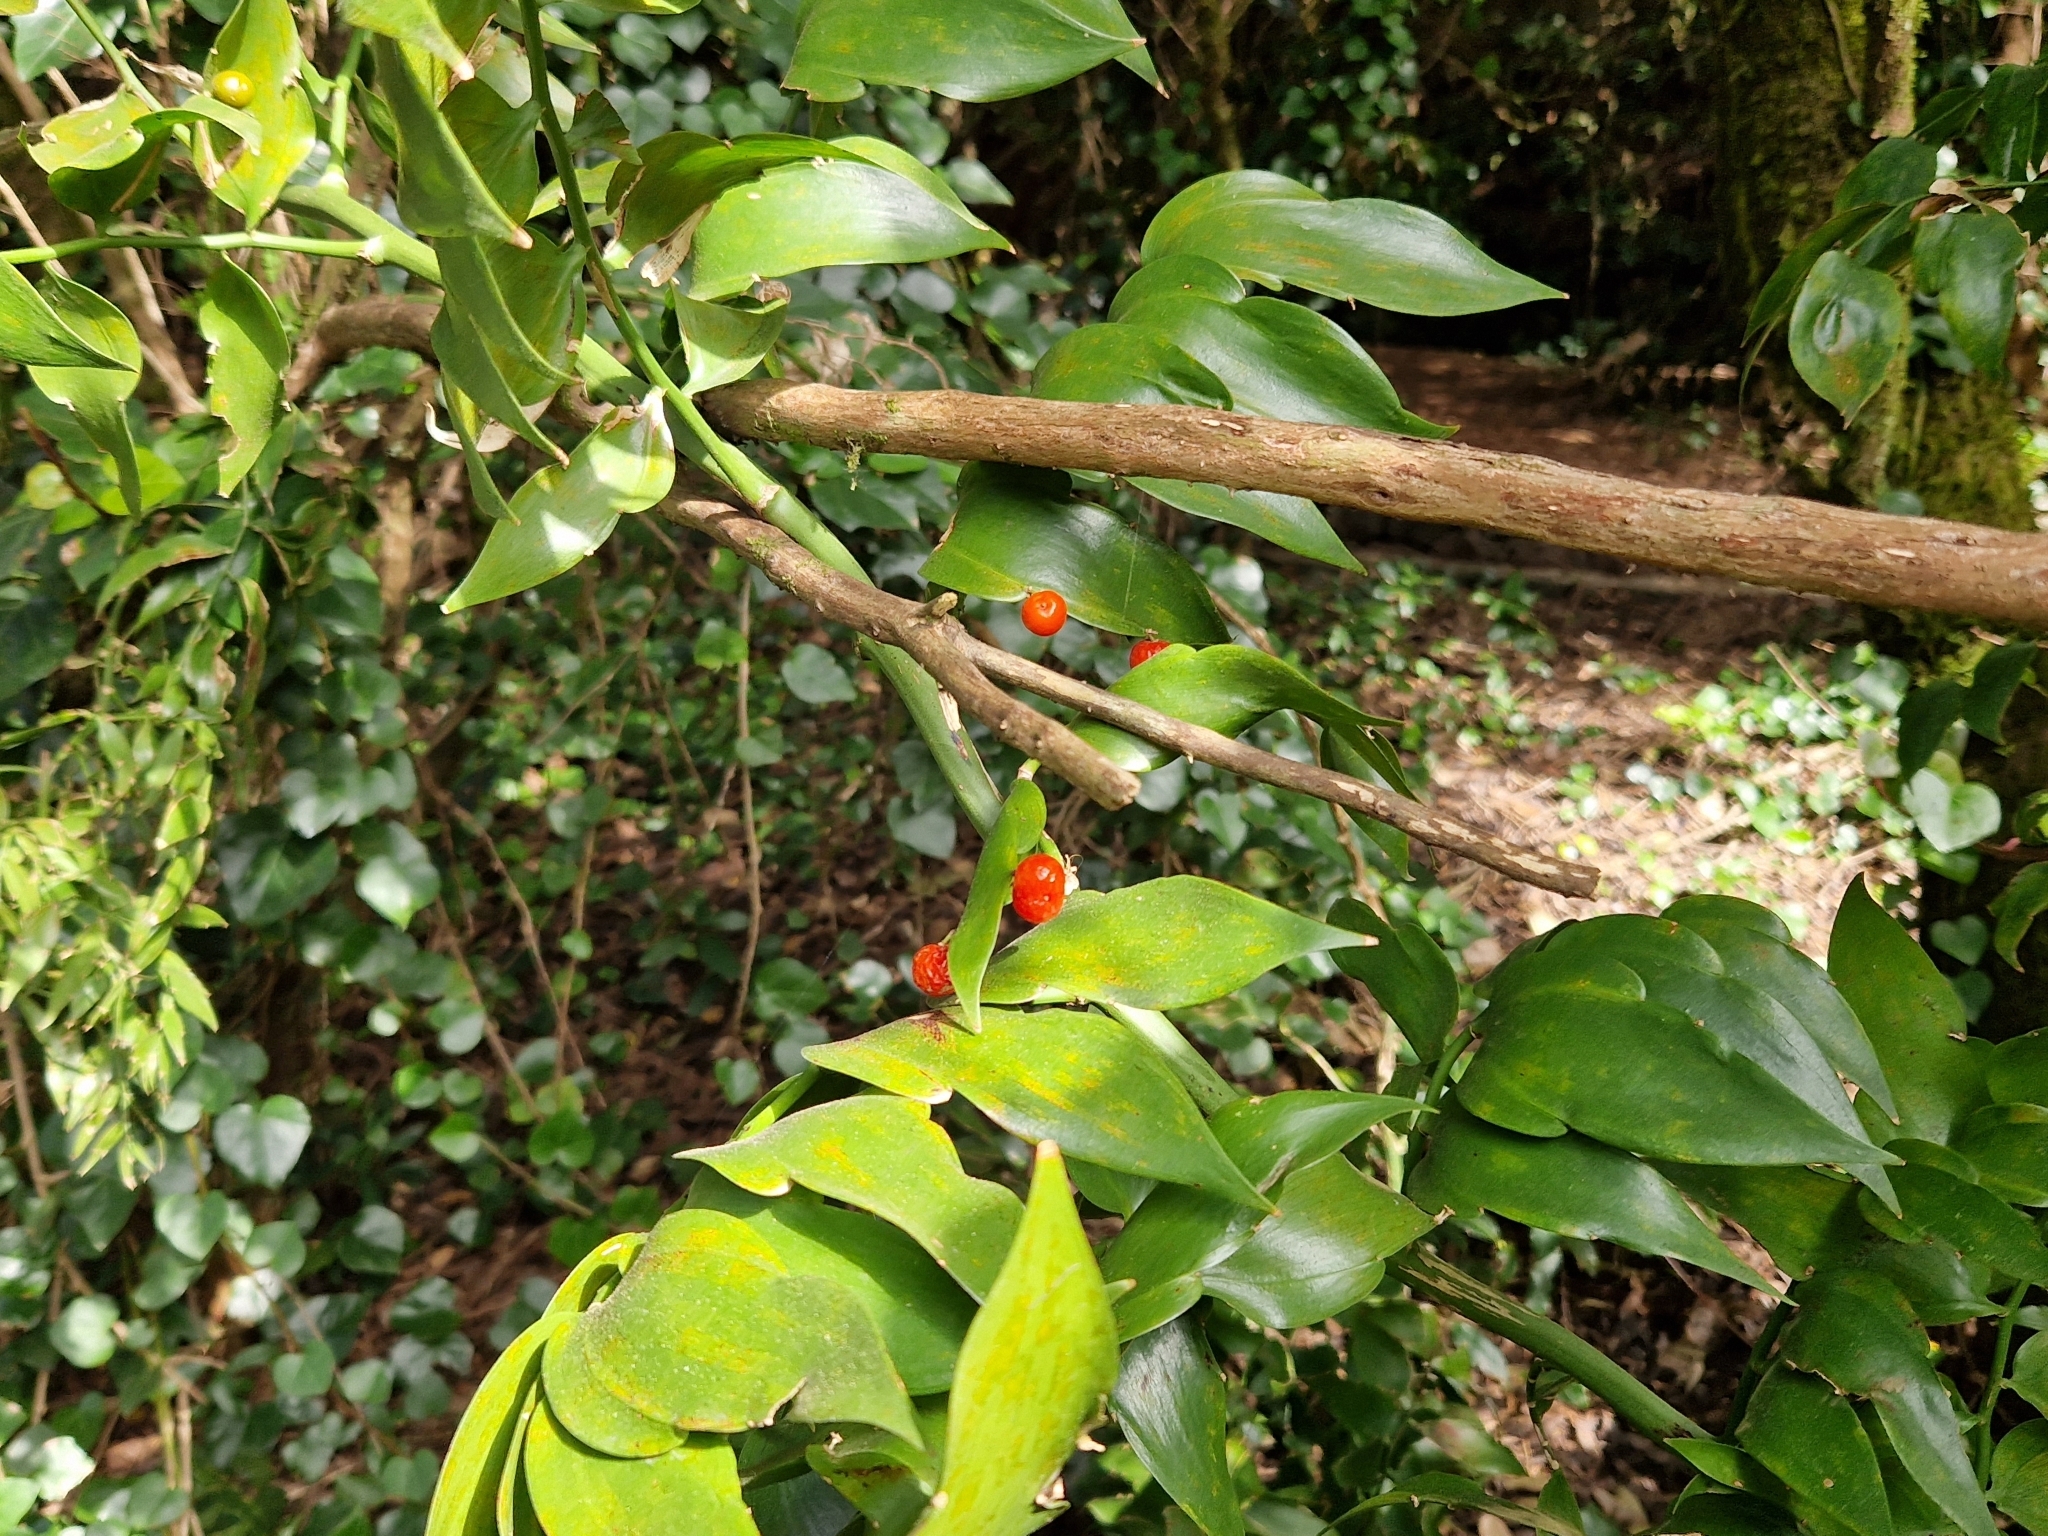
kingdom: Plantae
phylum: Tracheophyta
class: Liliopsida
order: Asparagales
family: Asparagaceae
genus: Semele
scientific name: Semele androgyna
